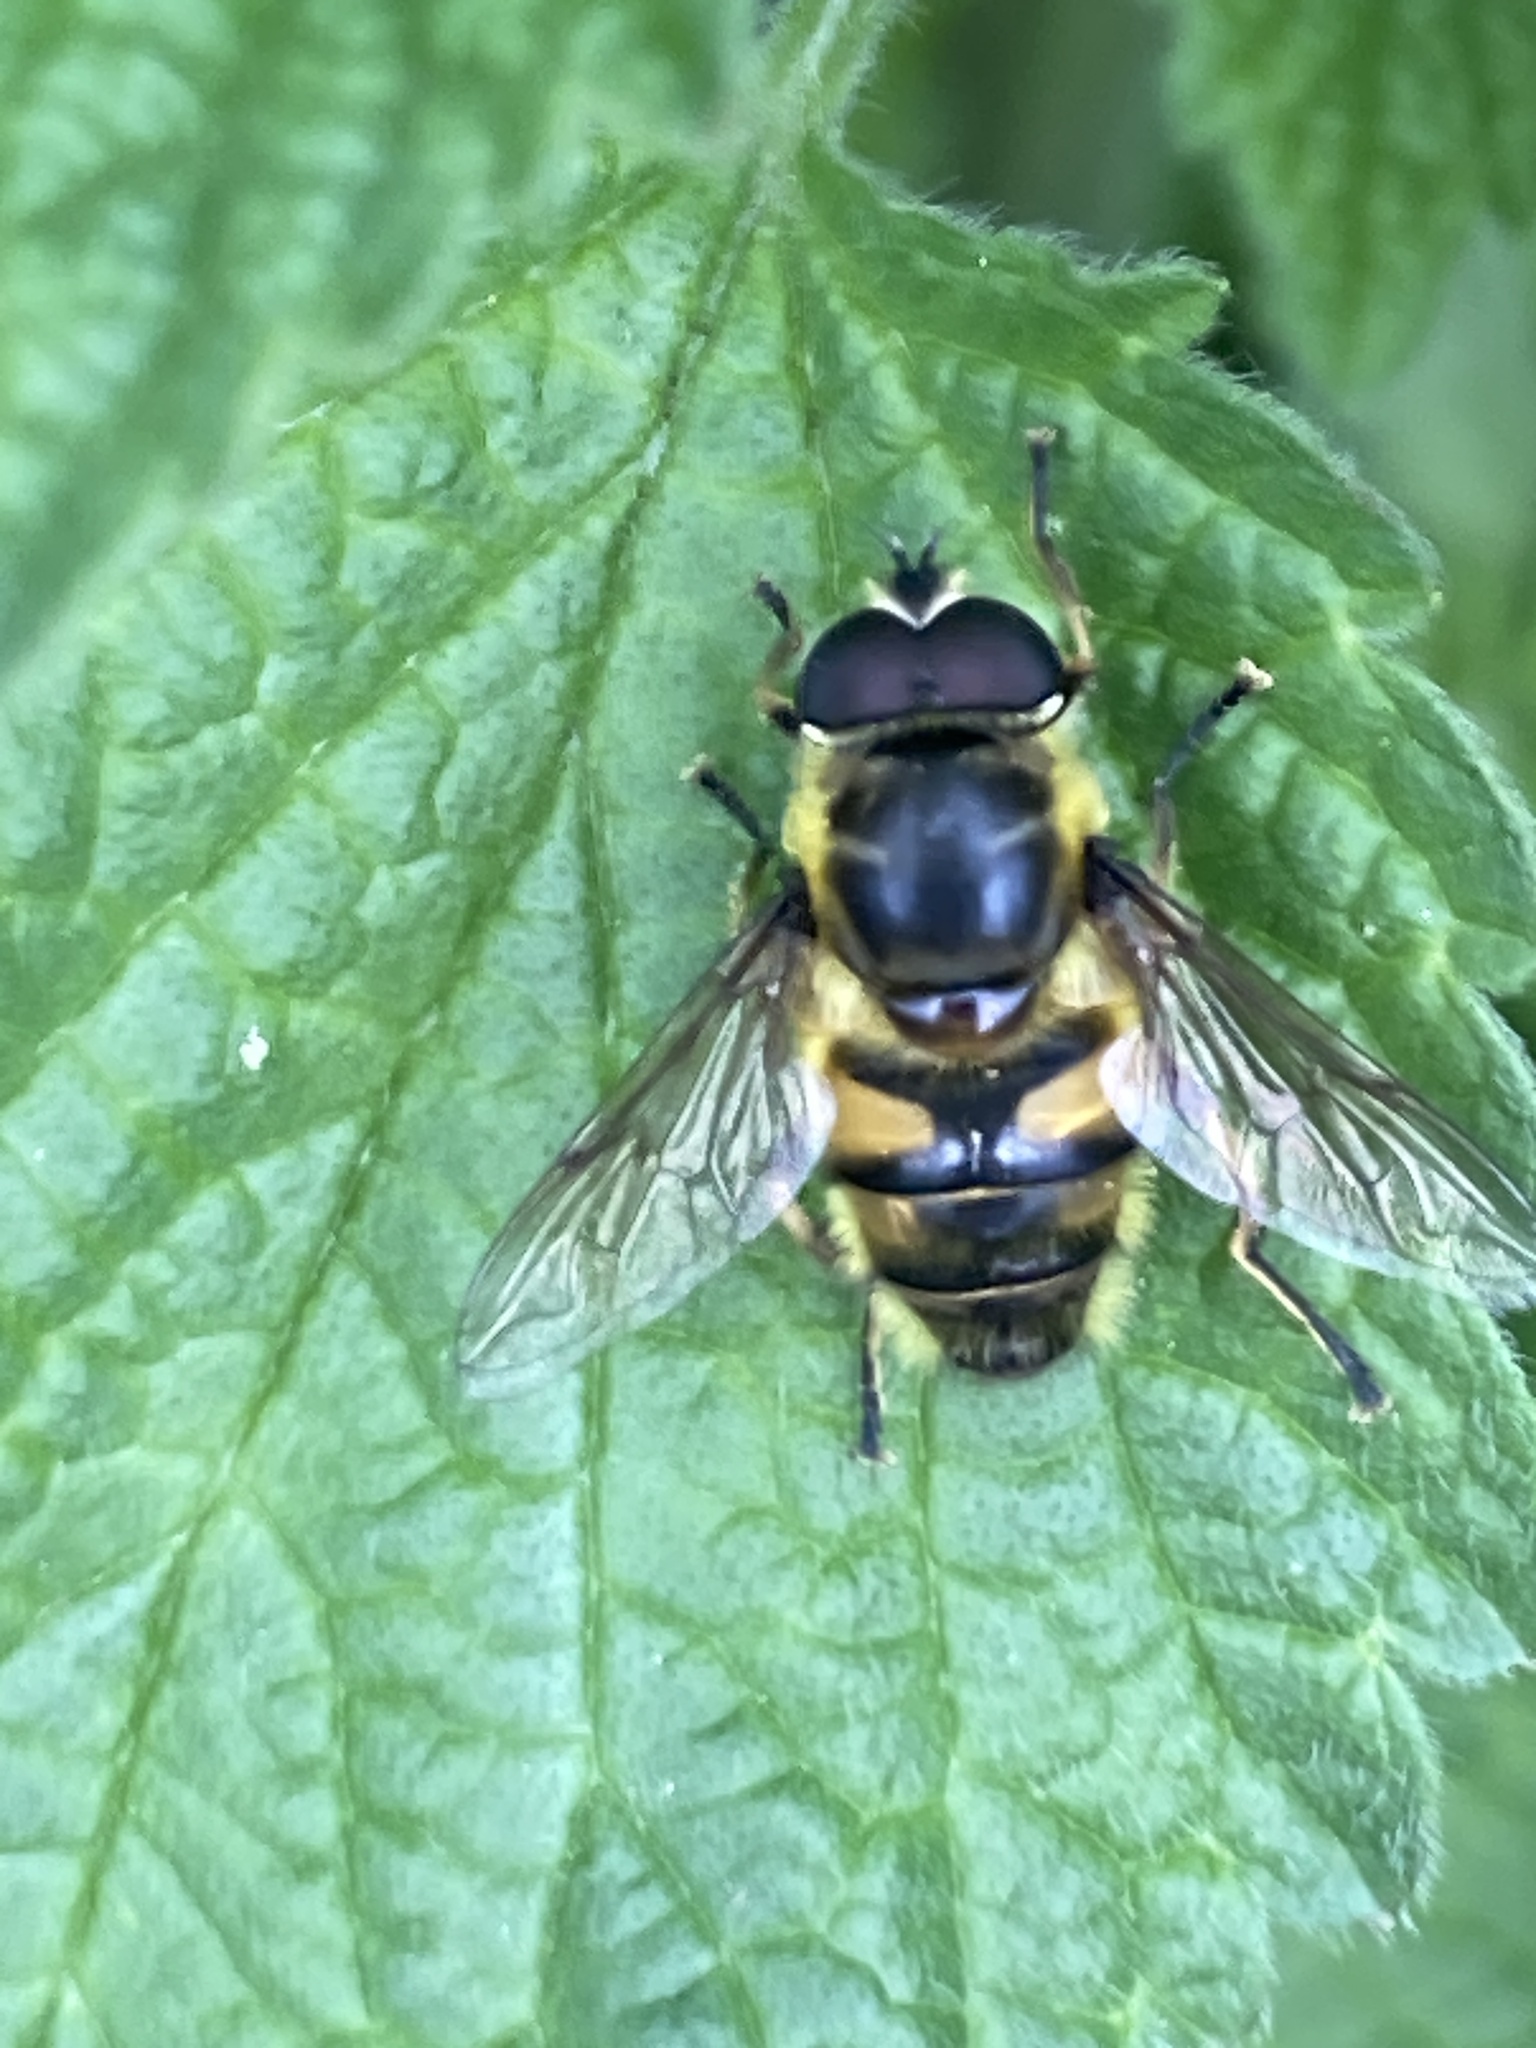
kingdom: Animalia
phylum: Arthropoda
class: Insecta
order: Diptera
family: Syrphidae
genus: Myathropa
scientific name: Myathropa florea
